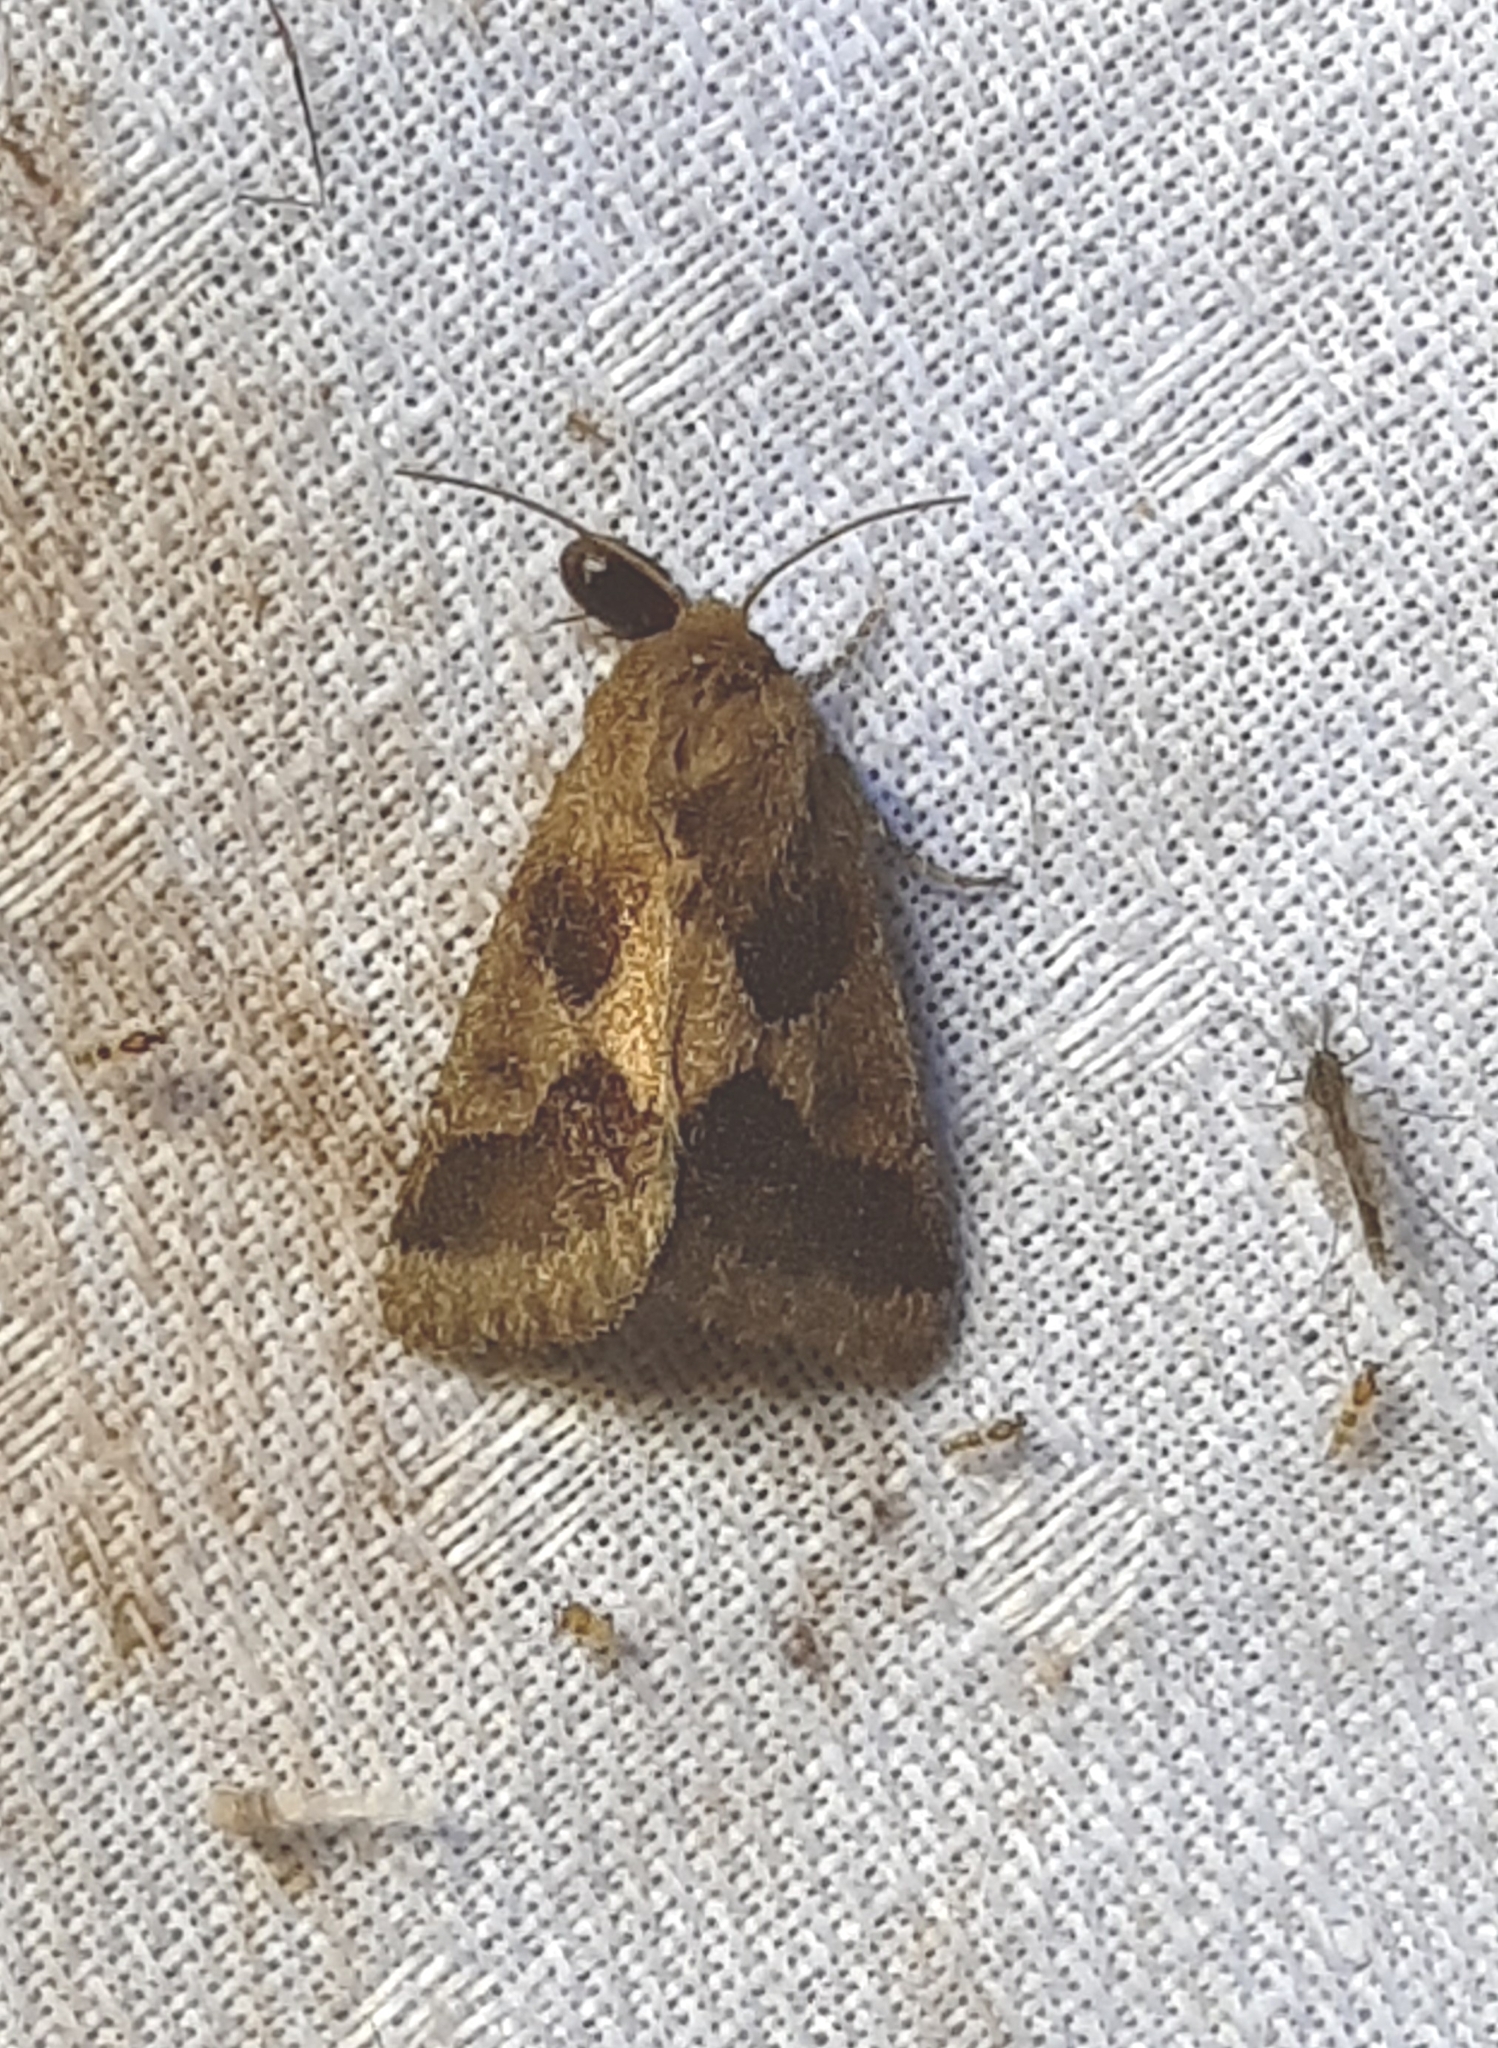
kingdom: Animalia
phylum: Arthropoda
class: Insecta
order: Lepidoptera
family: Noctuidae
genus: Schinia
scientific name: Schinia thoreaui
